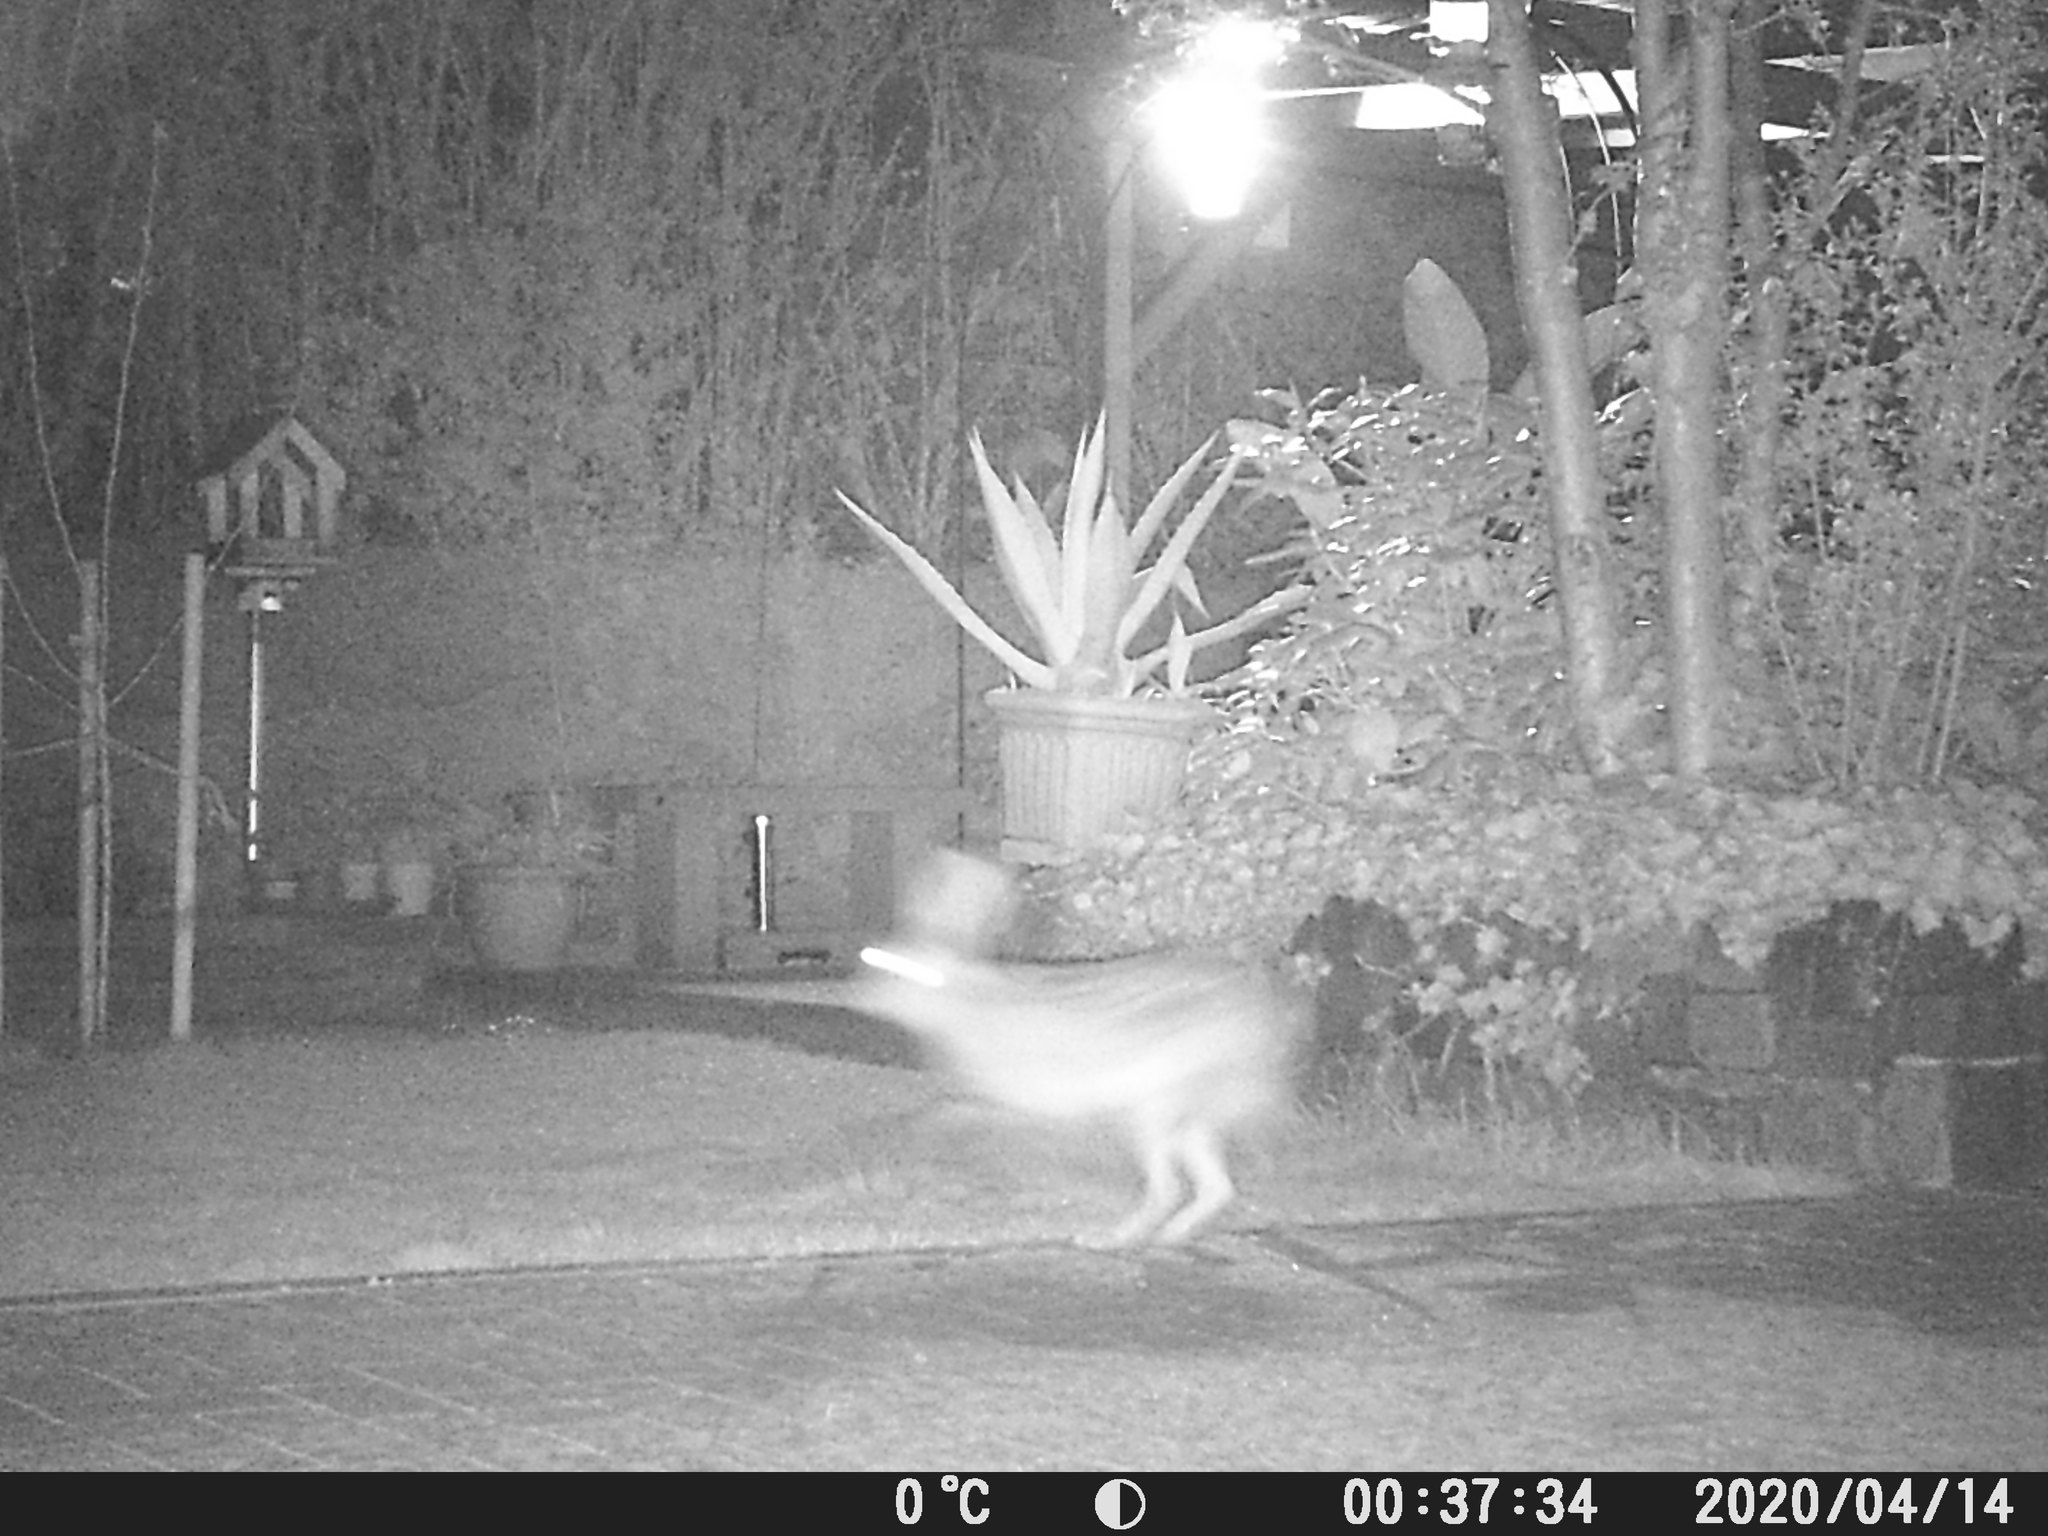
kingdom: Animalia
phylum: Chordata
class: Mammalia
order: Lagomorpha
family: Leporidae
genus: Lepus
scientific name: Lepus europaeus
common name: European hare
